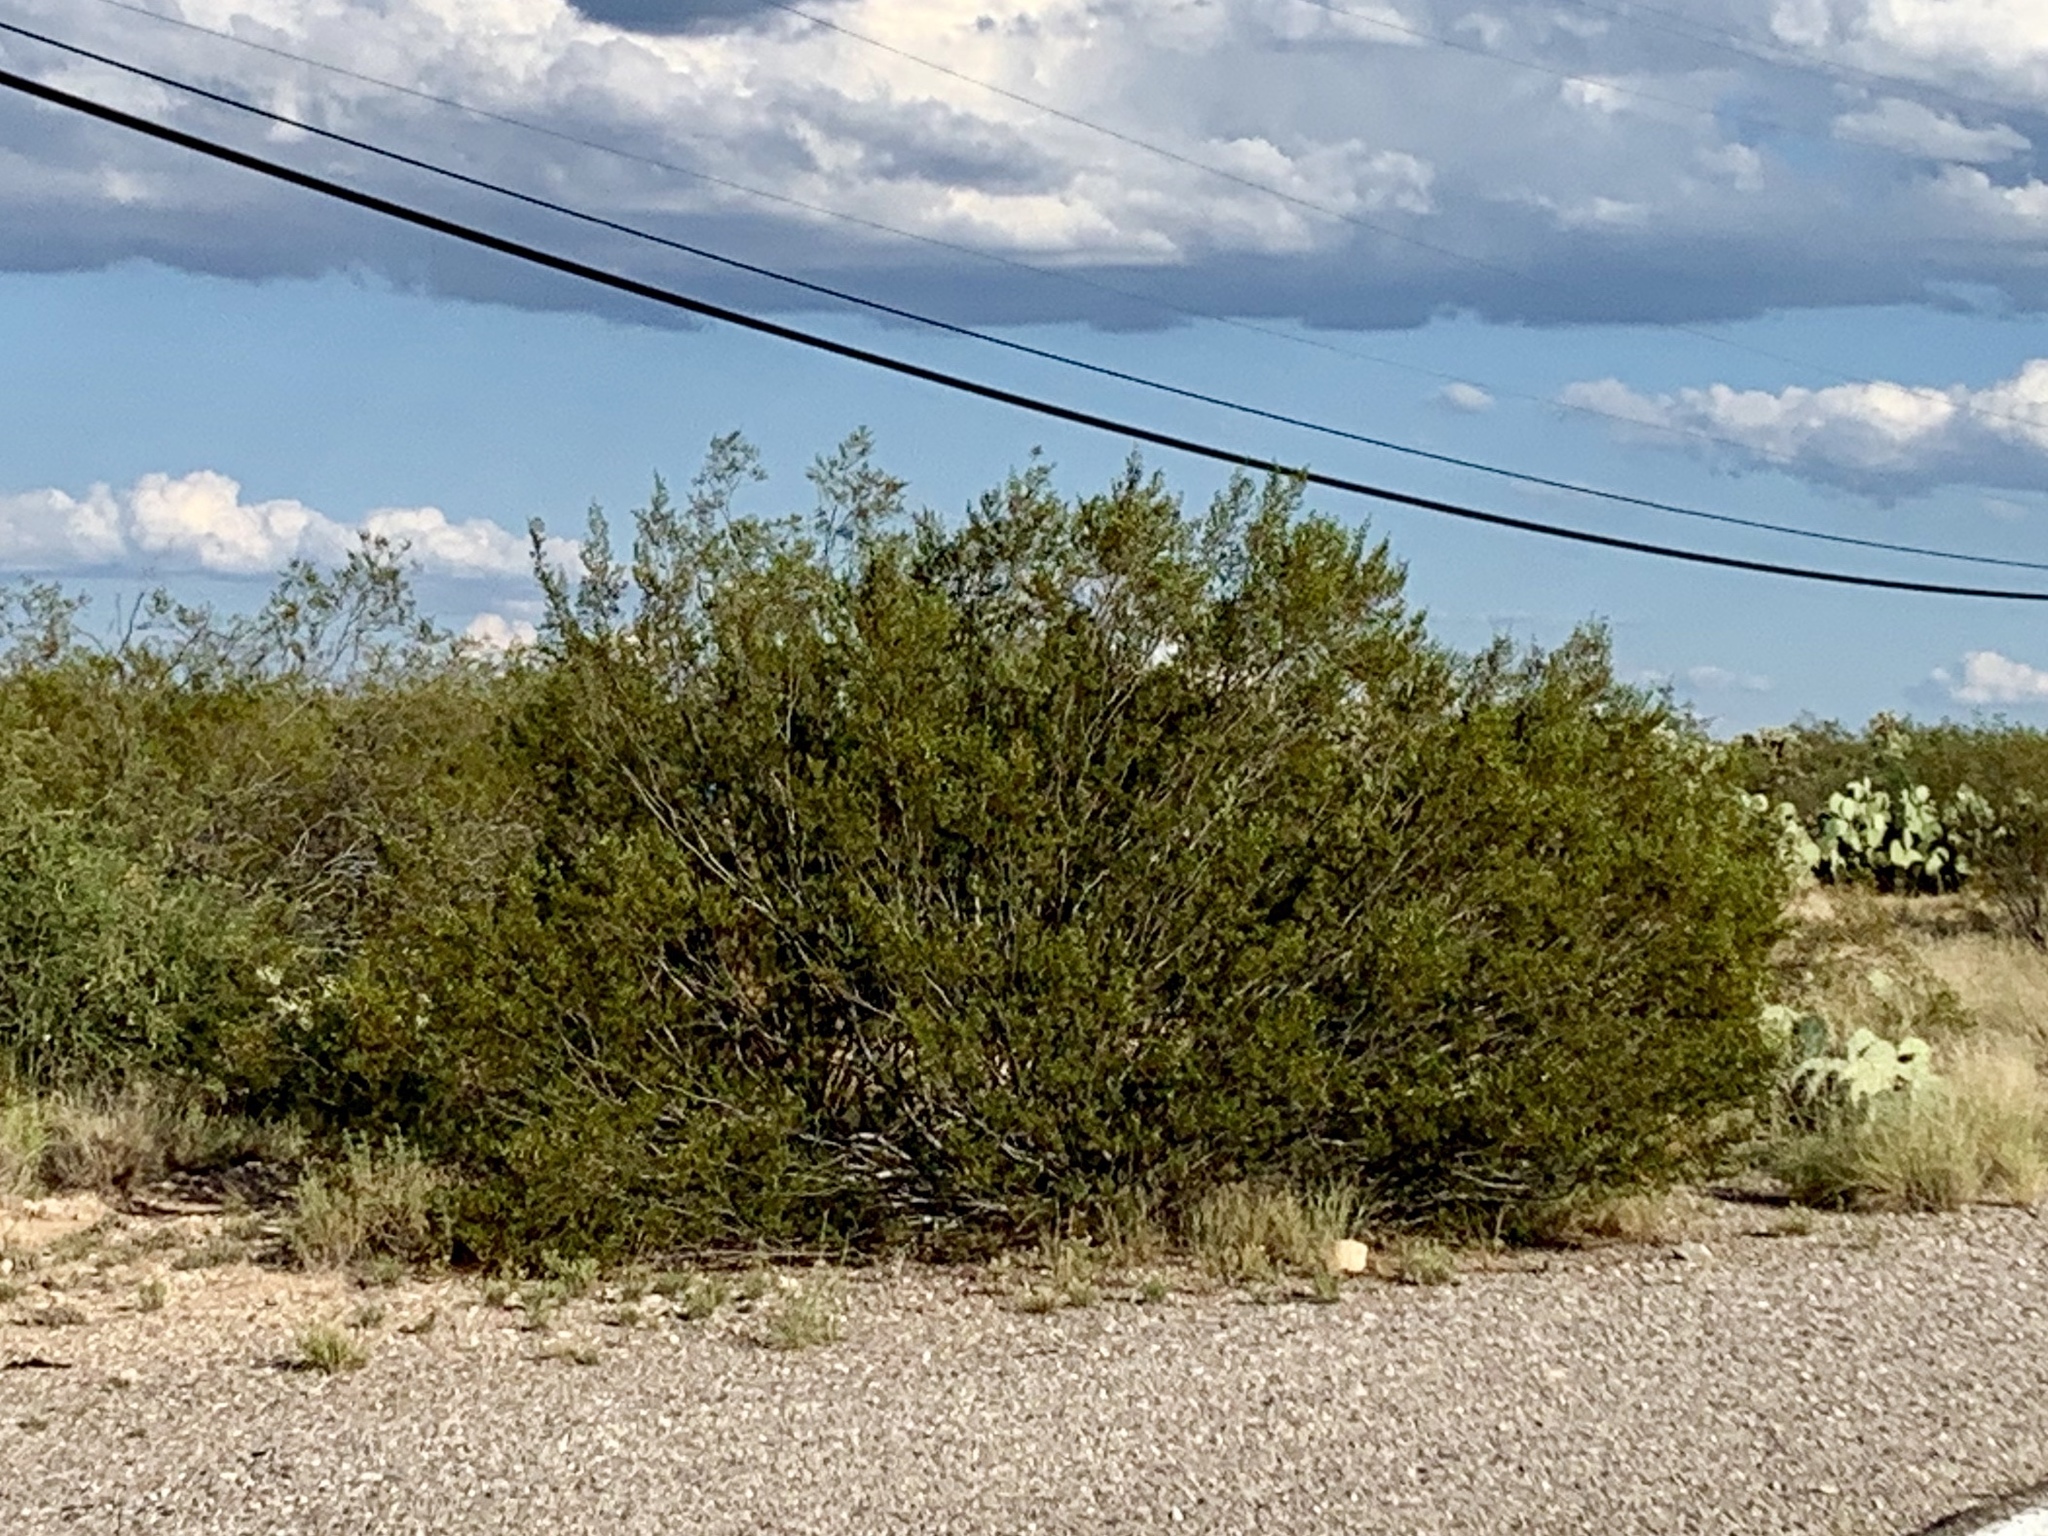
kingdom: Plantae
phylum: Tracheophyta
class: Magnoliopsida
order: Zygophyllales
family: Zygophyllaceae
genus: Larrea
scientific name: Larrea tridentata
